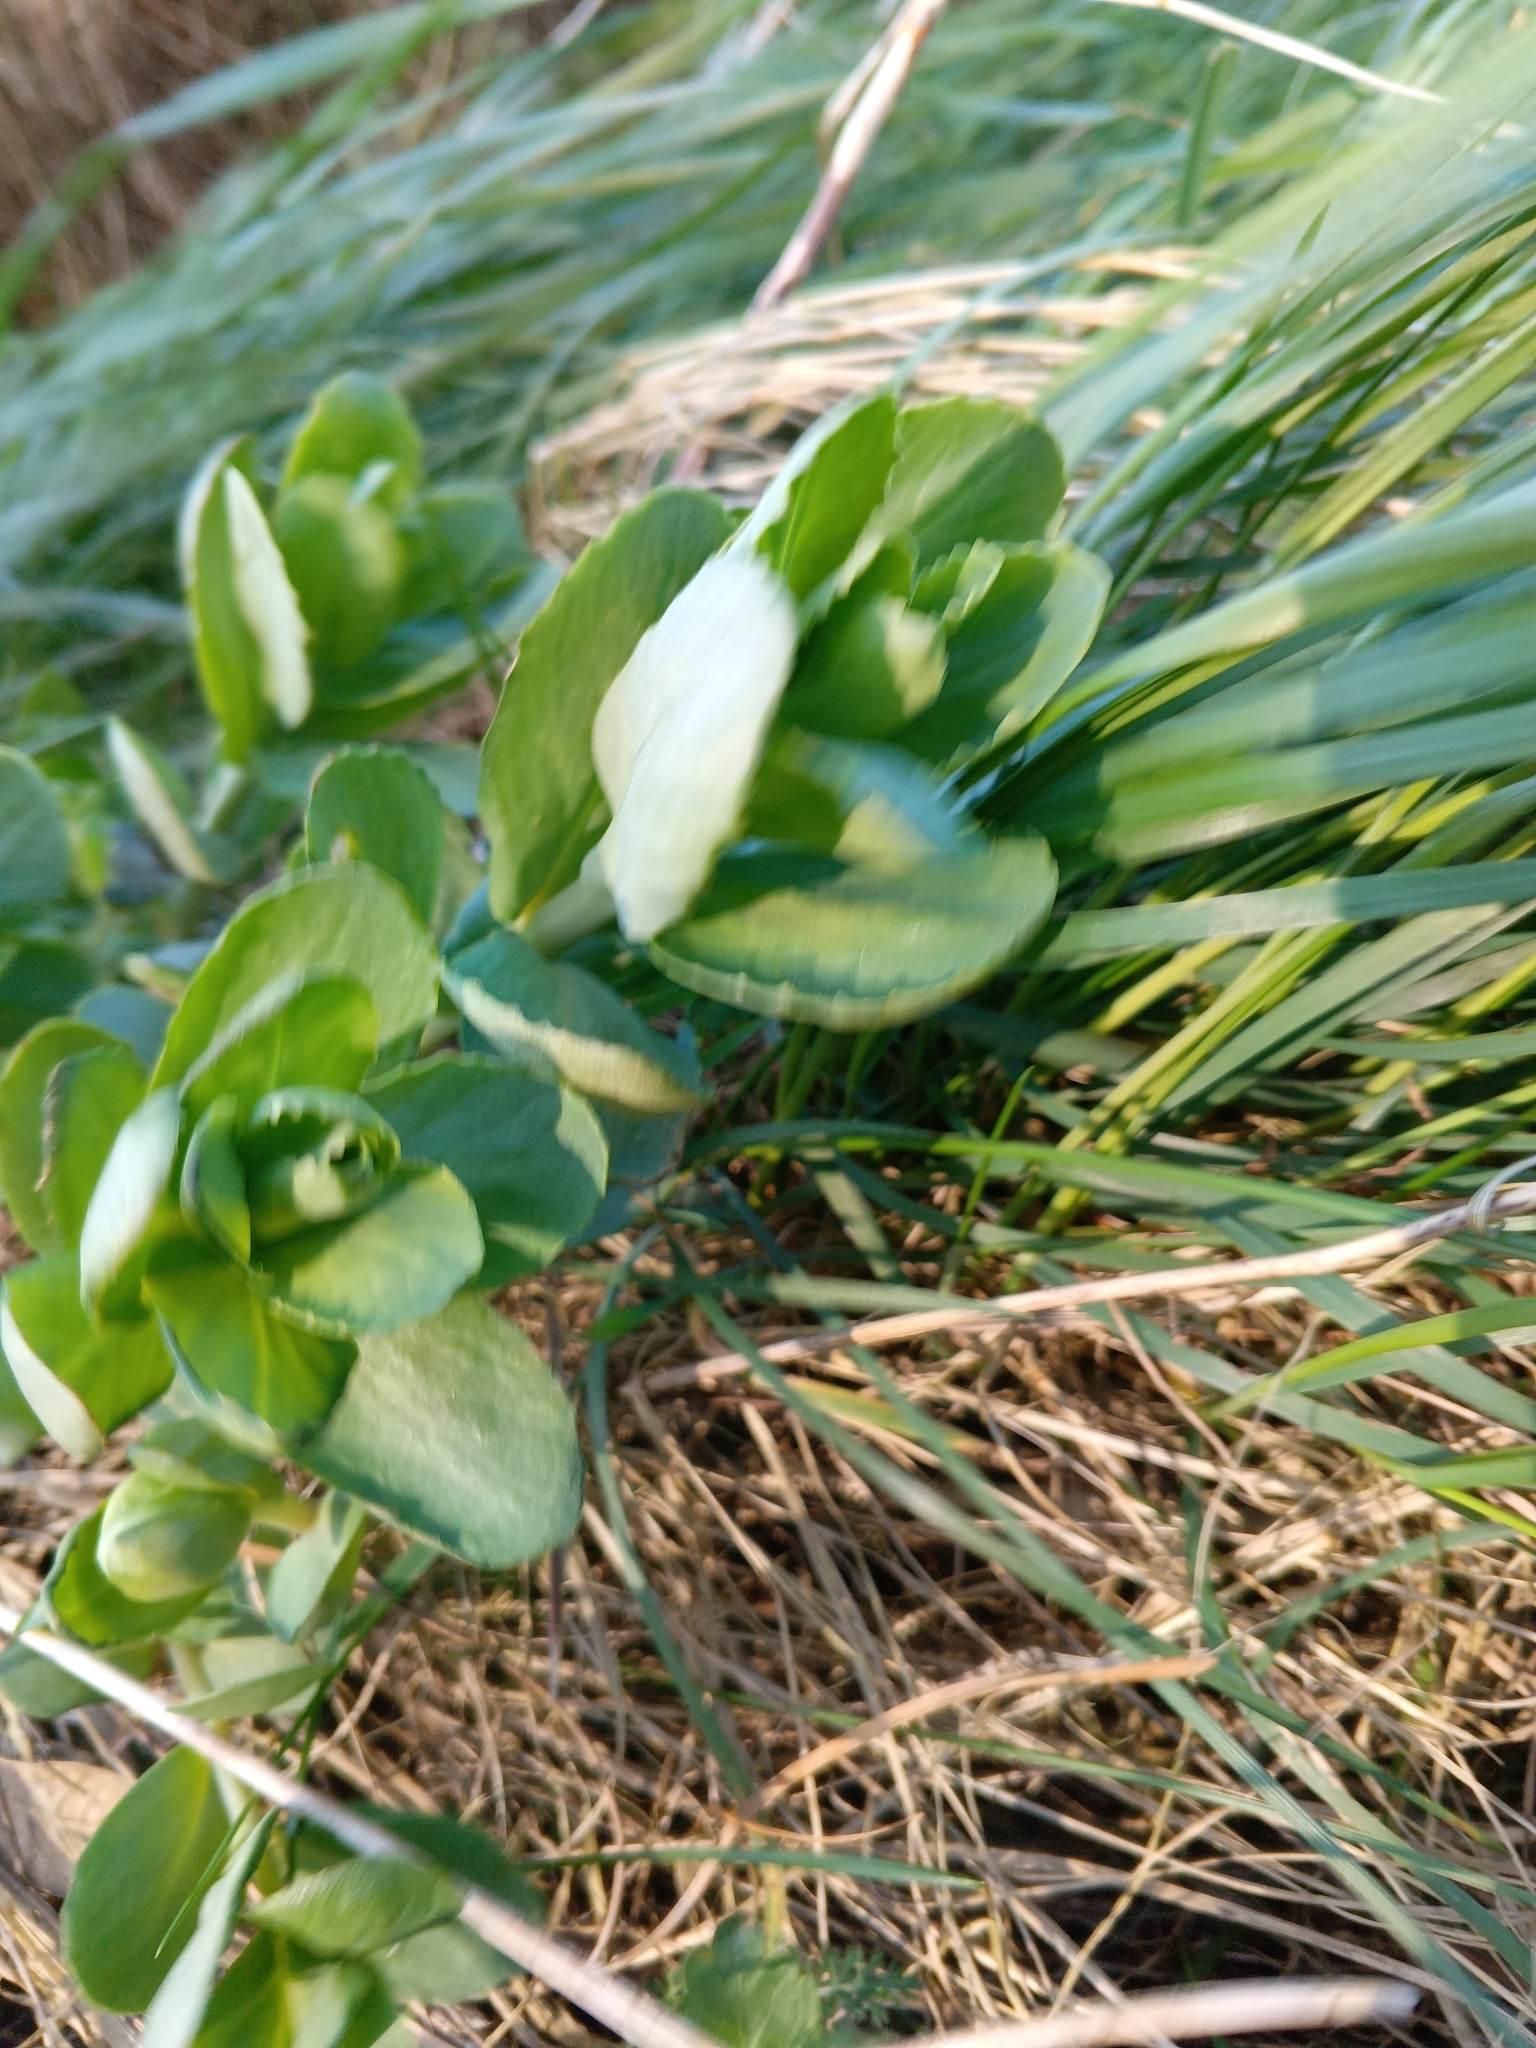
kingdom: Plantae
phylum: Tracheophyta
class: Magnoliopsida
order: Saxifragales
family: Crassulaceae
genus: Hylotelephium
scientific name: Hylotelephium maximum
